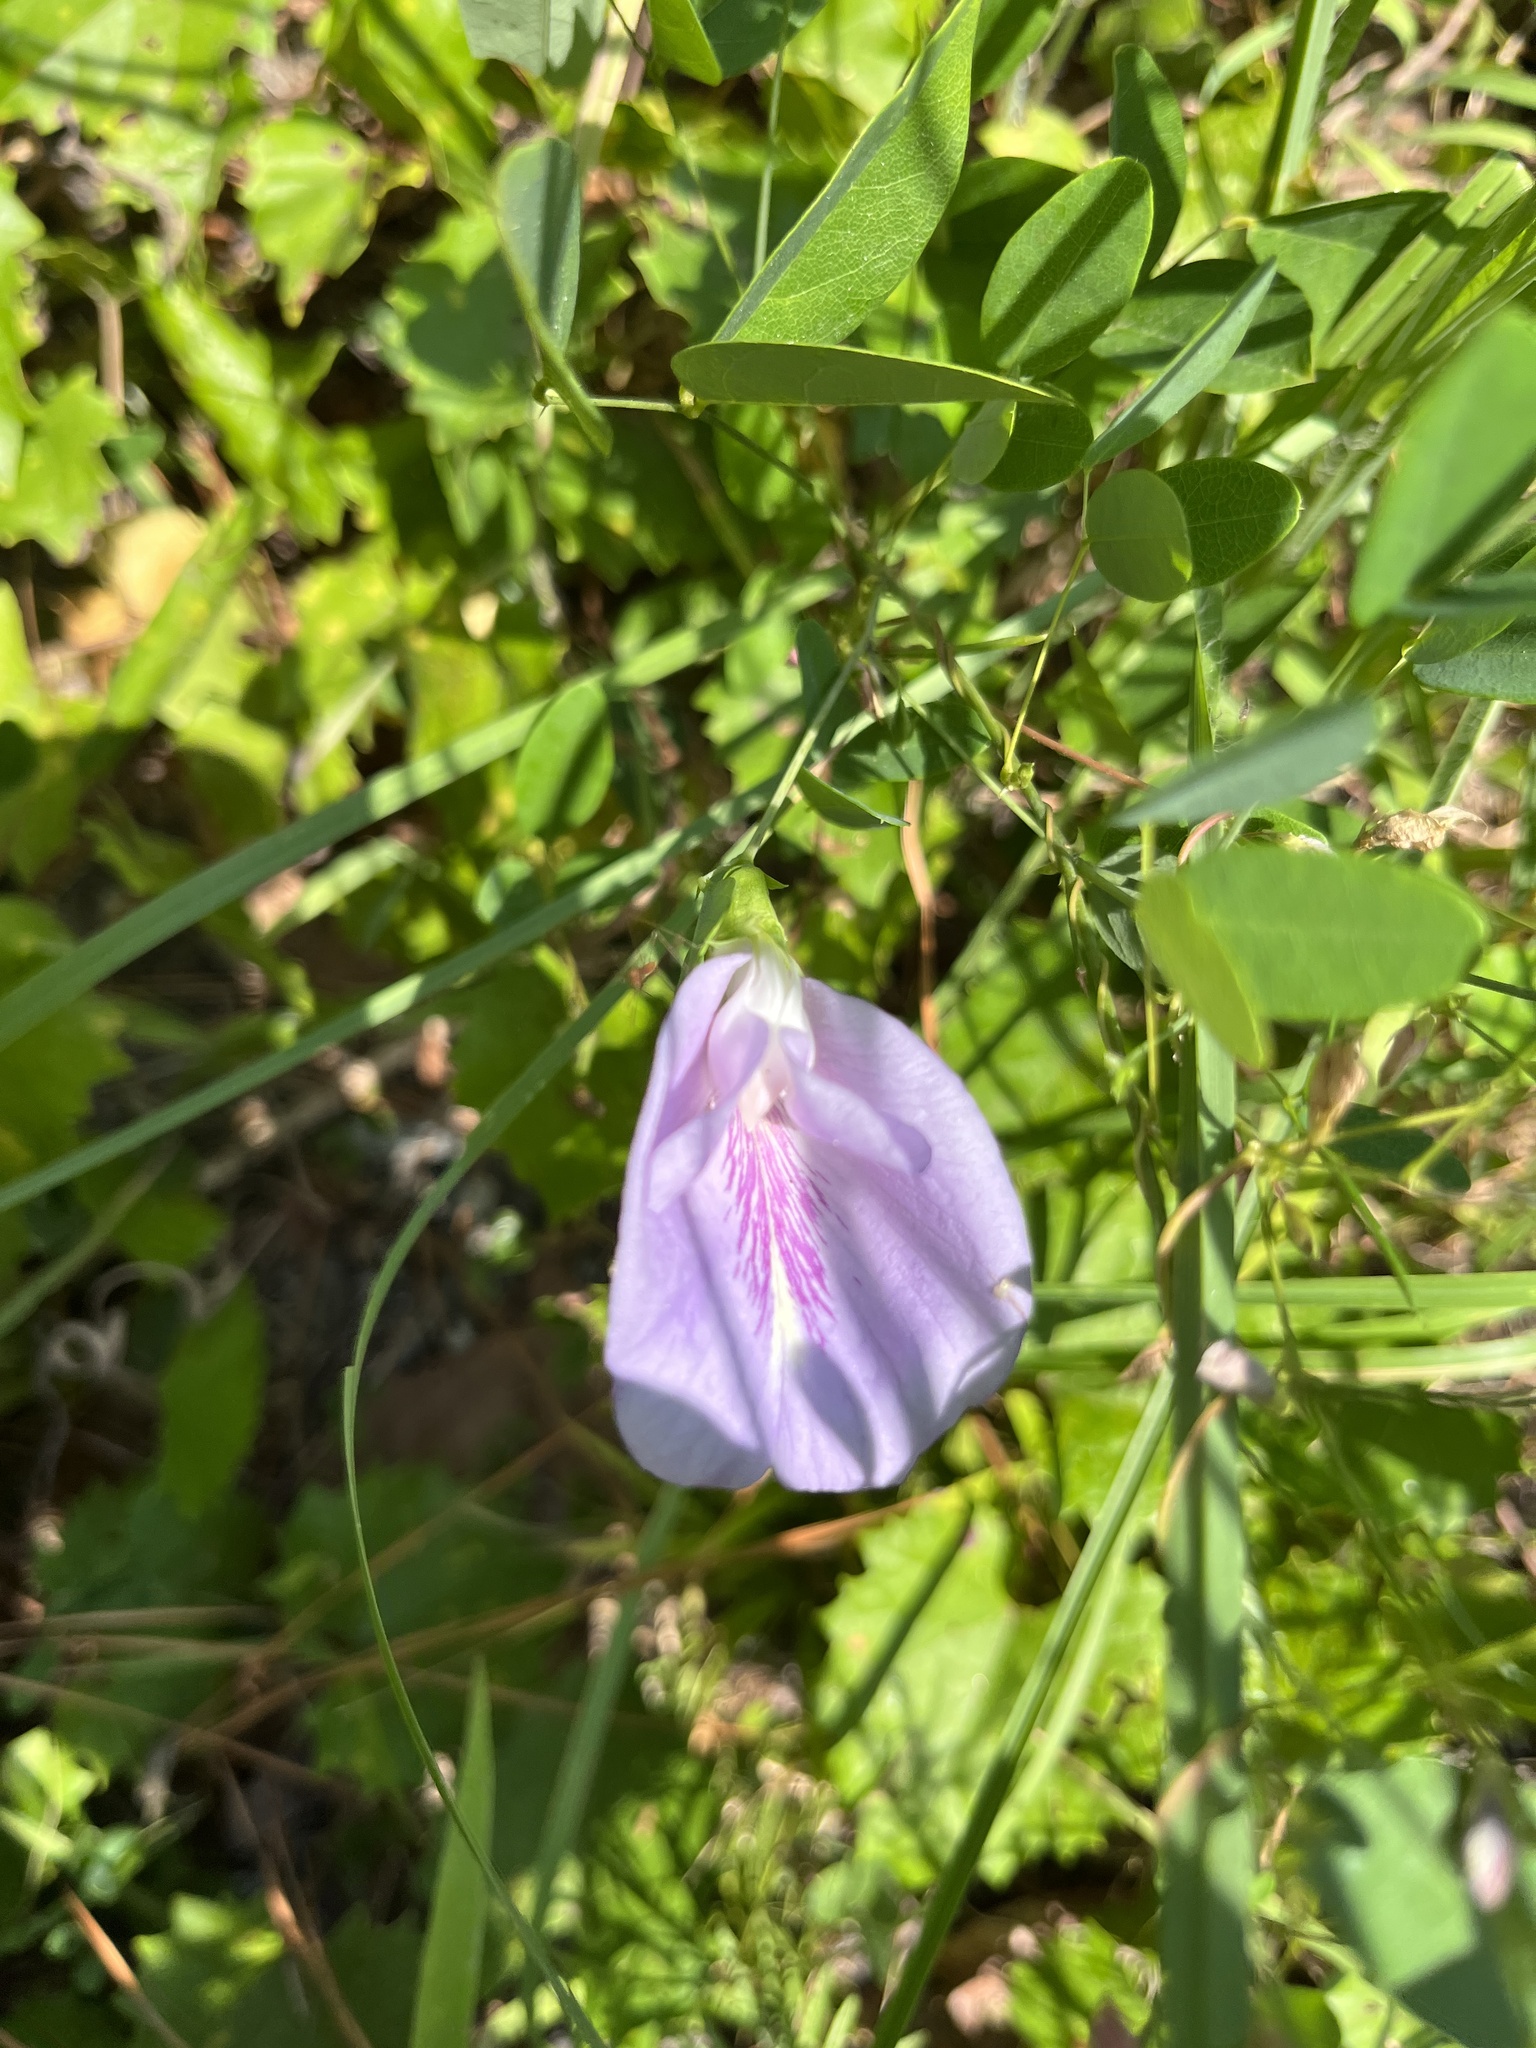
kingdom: Plantae
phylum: Tracheophyta
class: Magnoliopsida
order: Fabales
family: Fabaceae
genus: Clitoria
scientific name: Clitoria mariana
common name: Butterfly-pea
